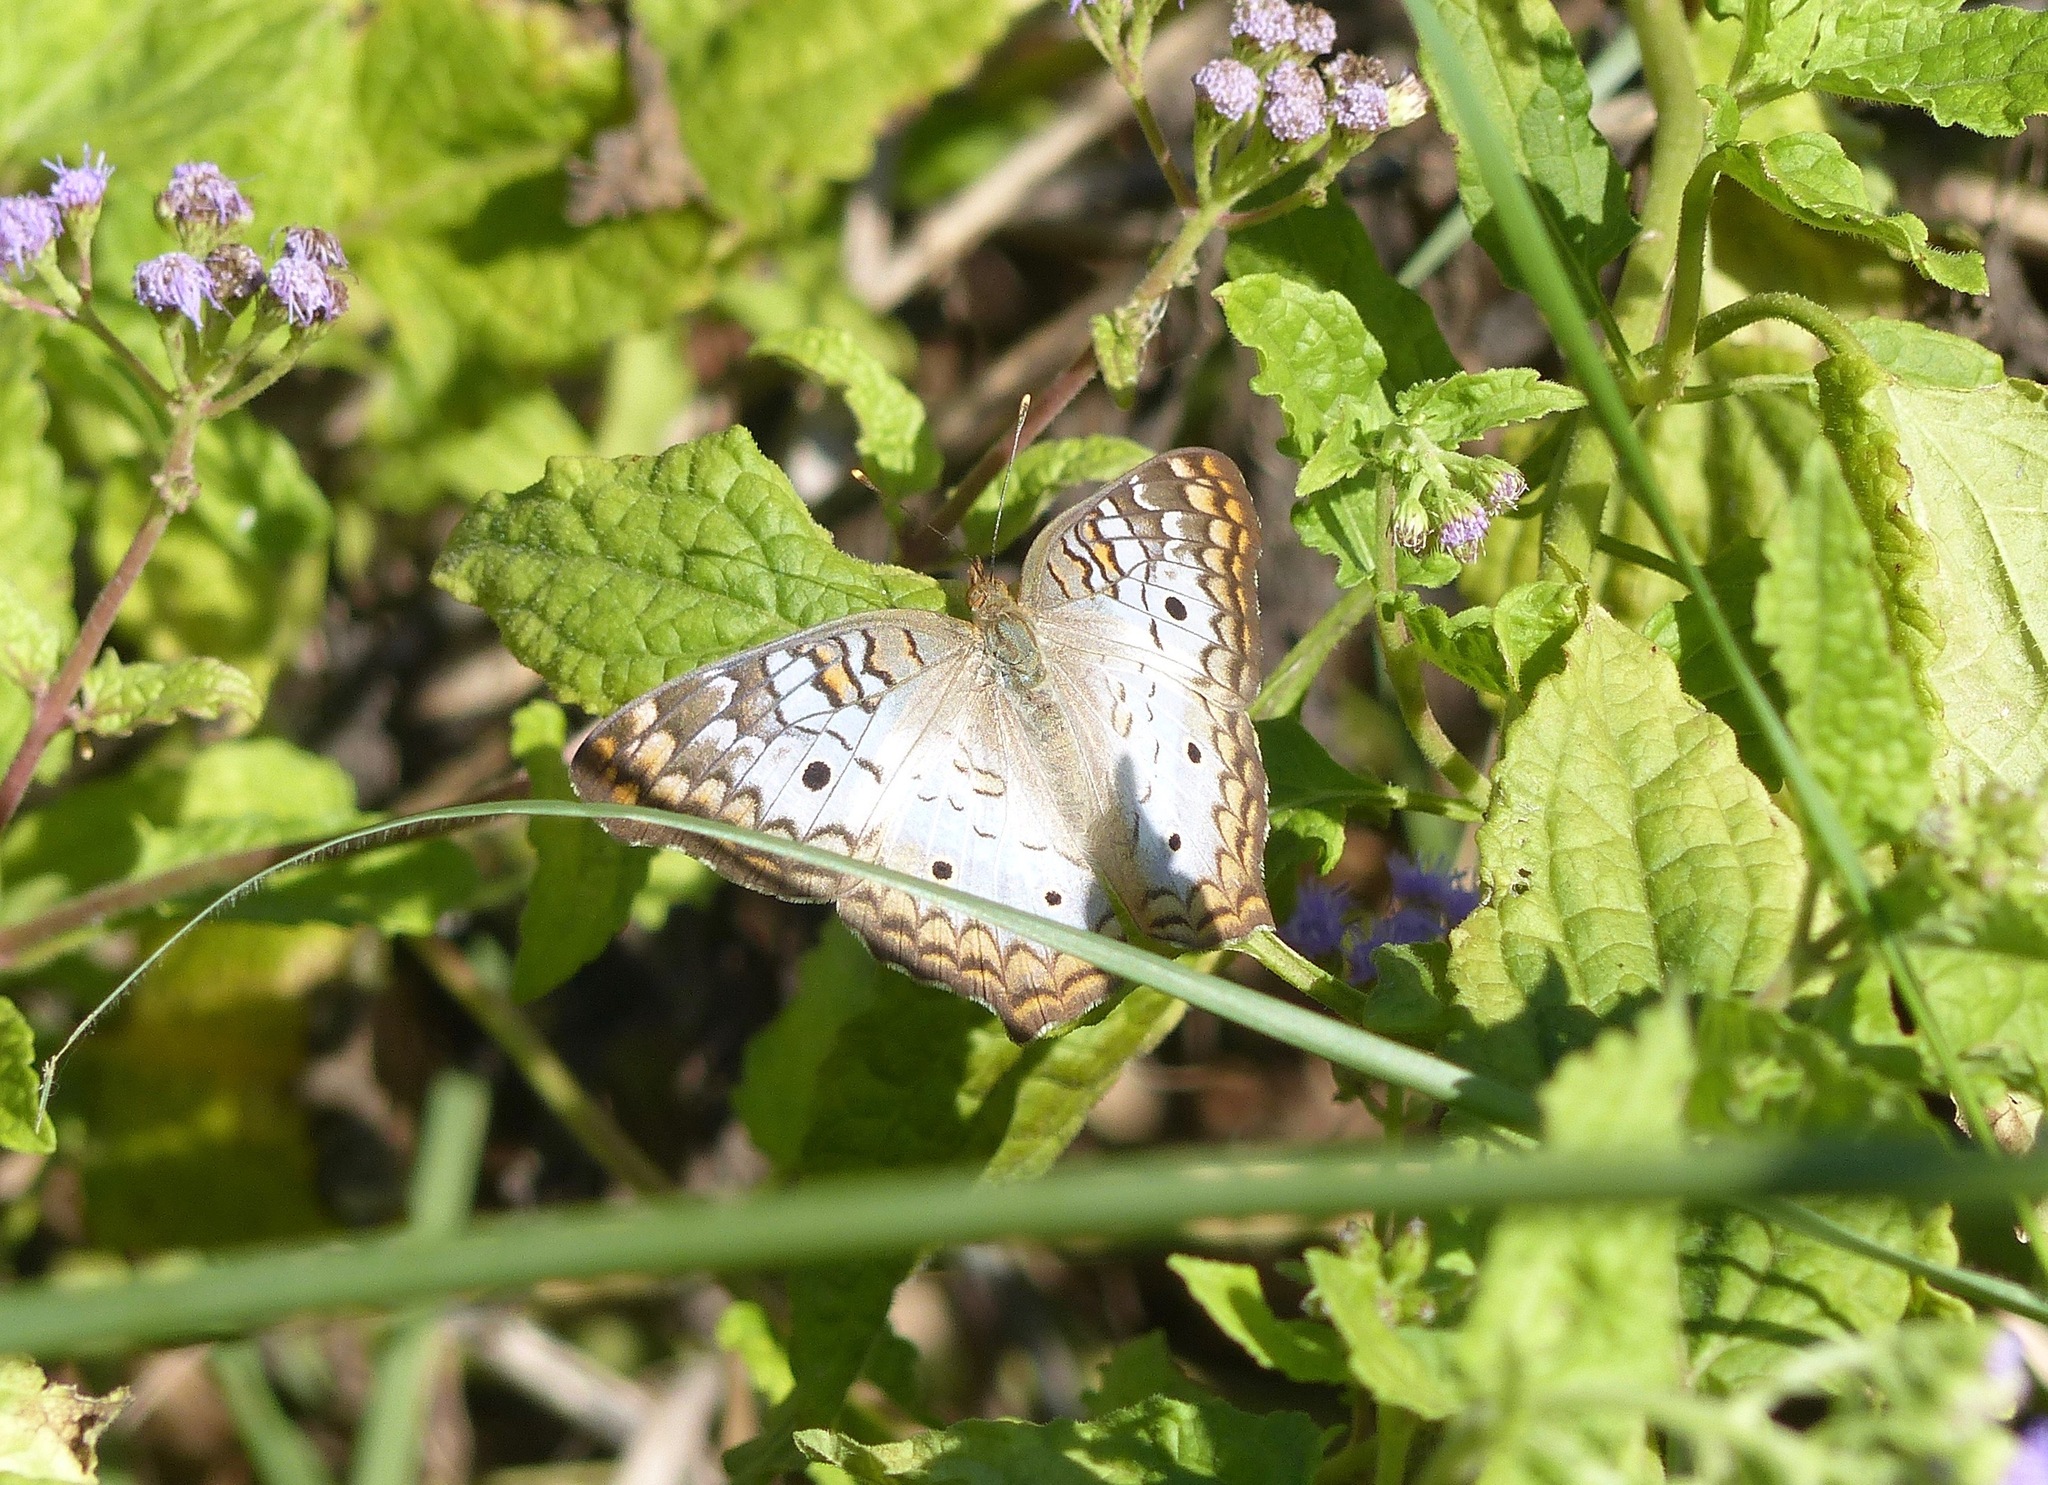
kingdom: Animalia
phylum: Arthropoda
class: Insecta
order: Lepidoptera
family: Nymphalidae
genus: Anartia
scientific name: Anartia jatrophae
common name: White peacock
